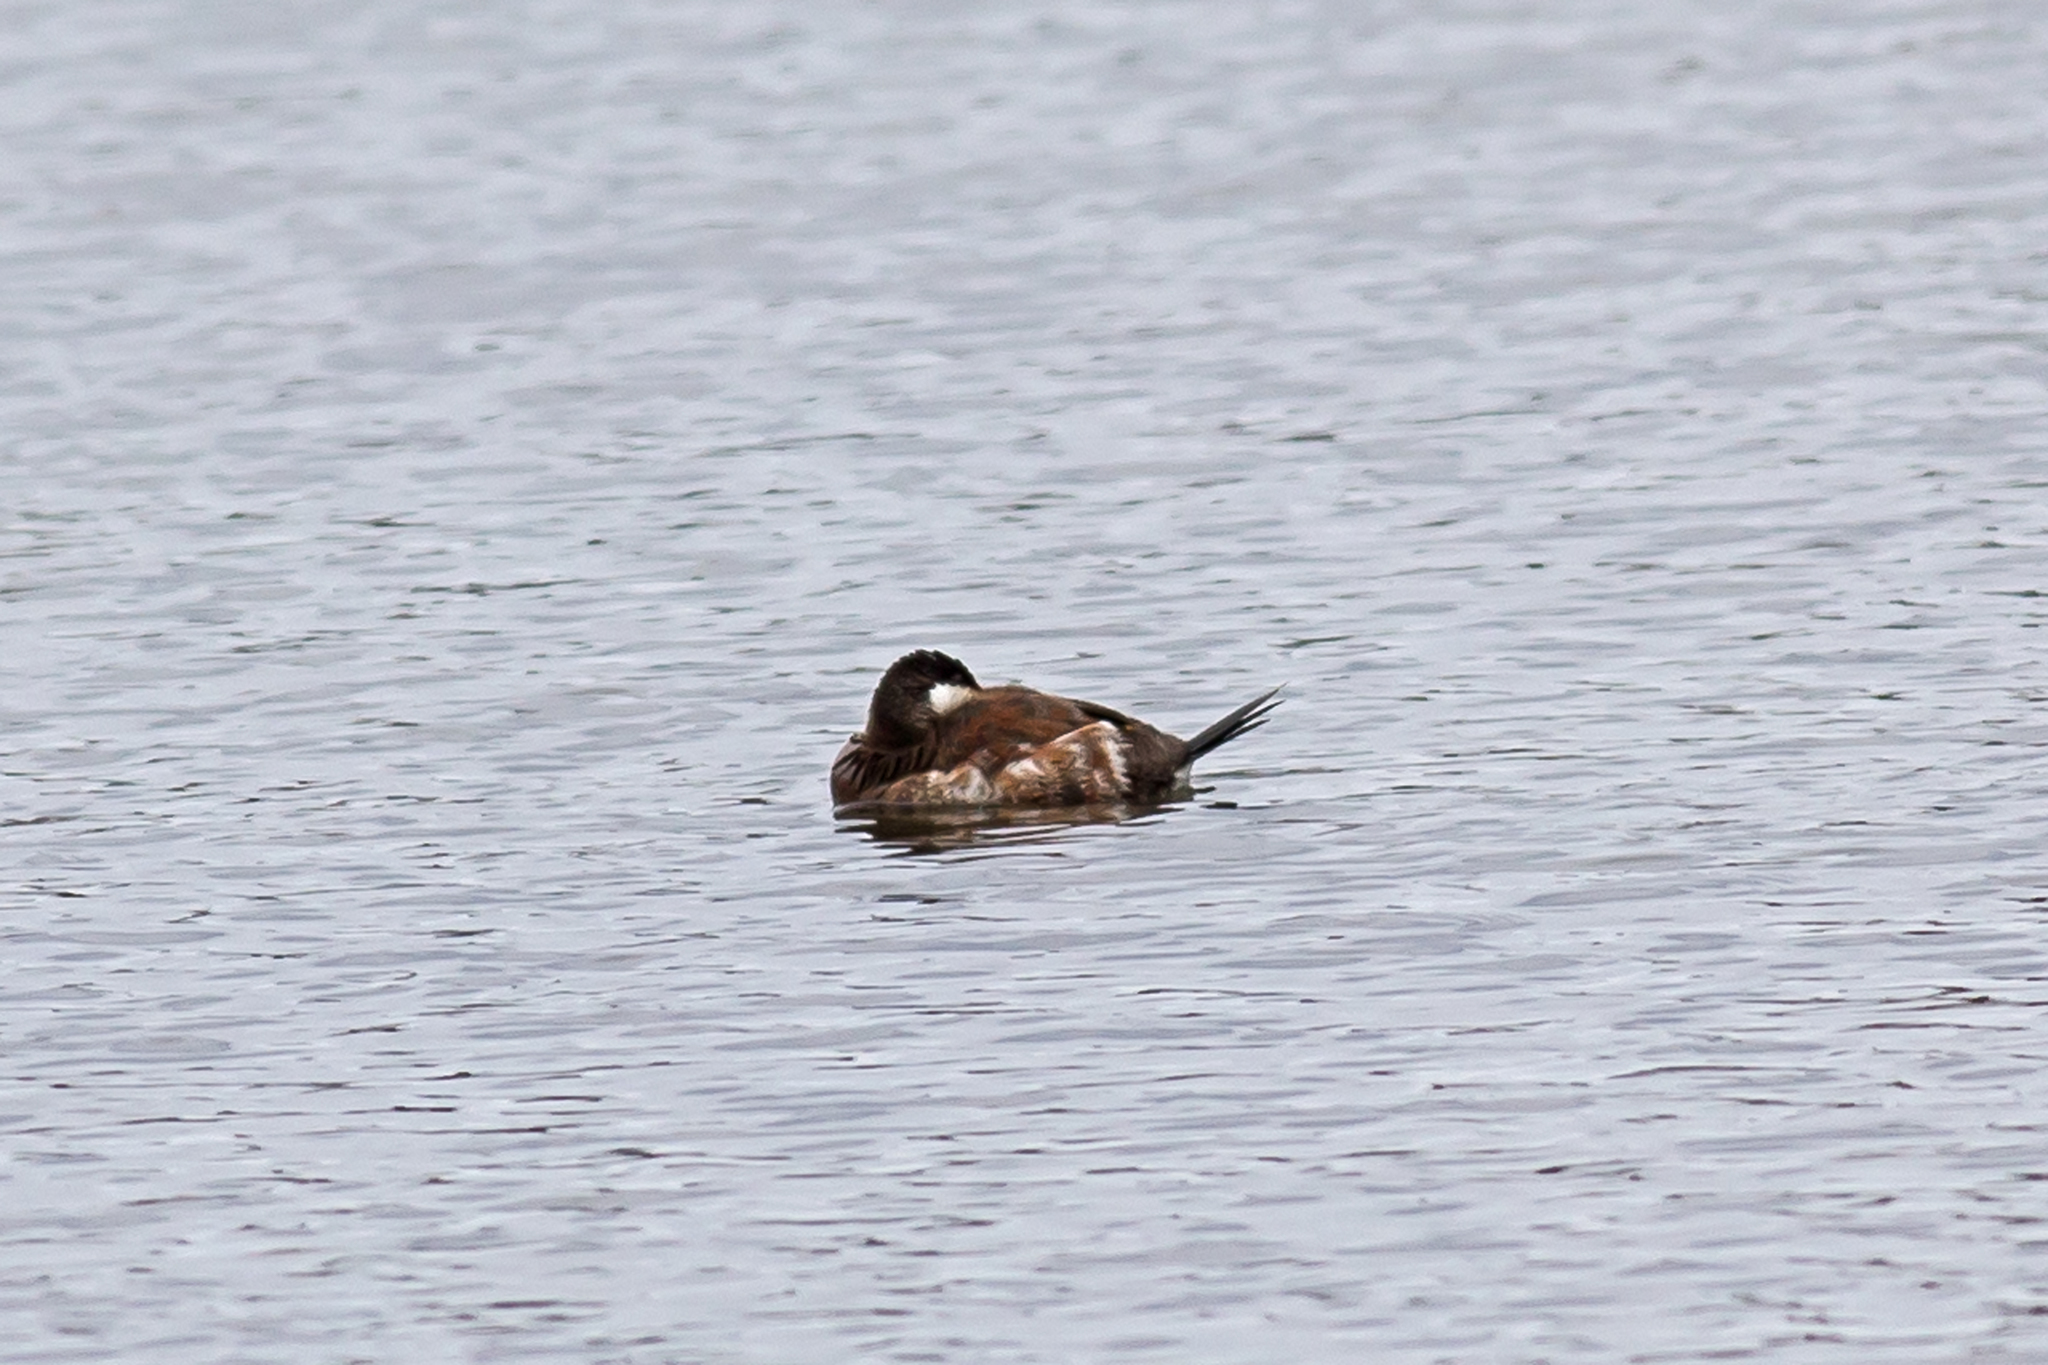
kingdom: Animalia
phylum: Chordata
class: Aves
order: Anseriformes
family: Anatidae
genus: Oxyura
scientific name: Oxyura jamaicensis
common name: Ruddy duck
